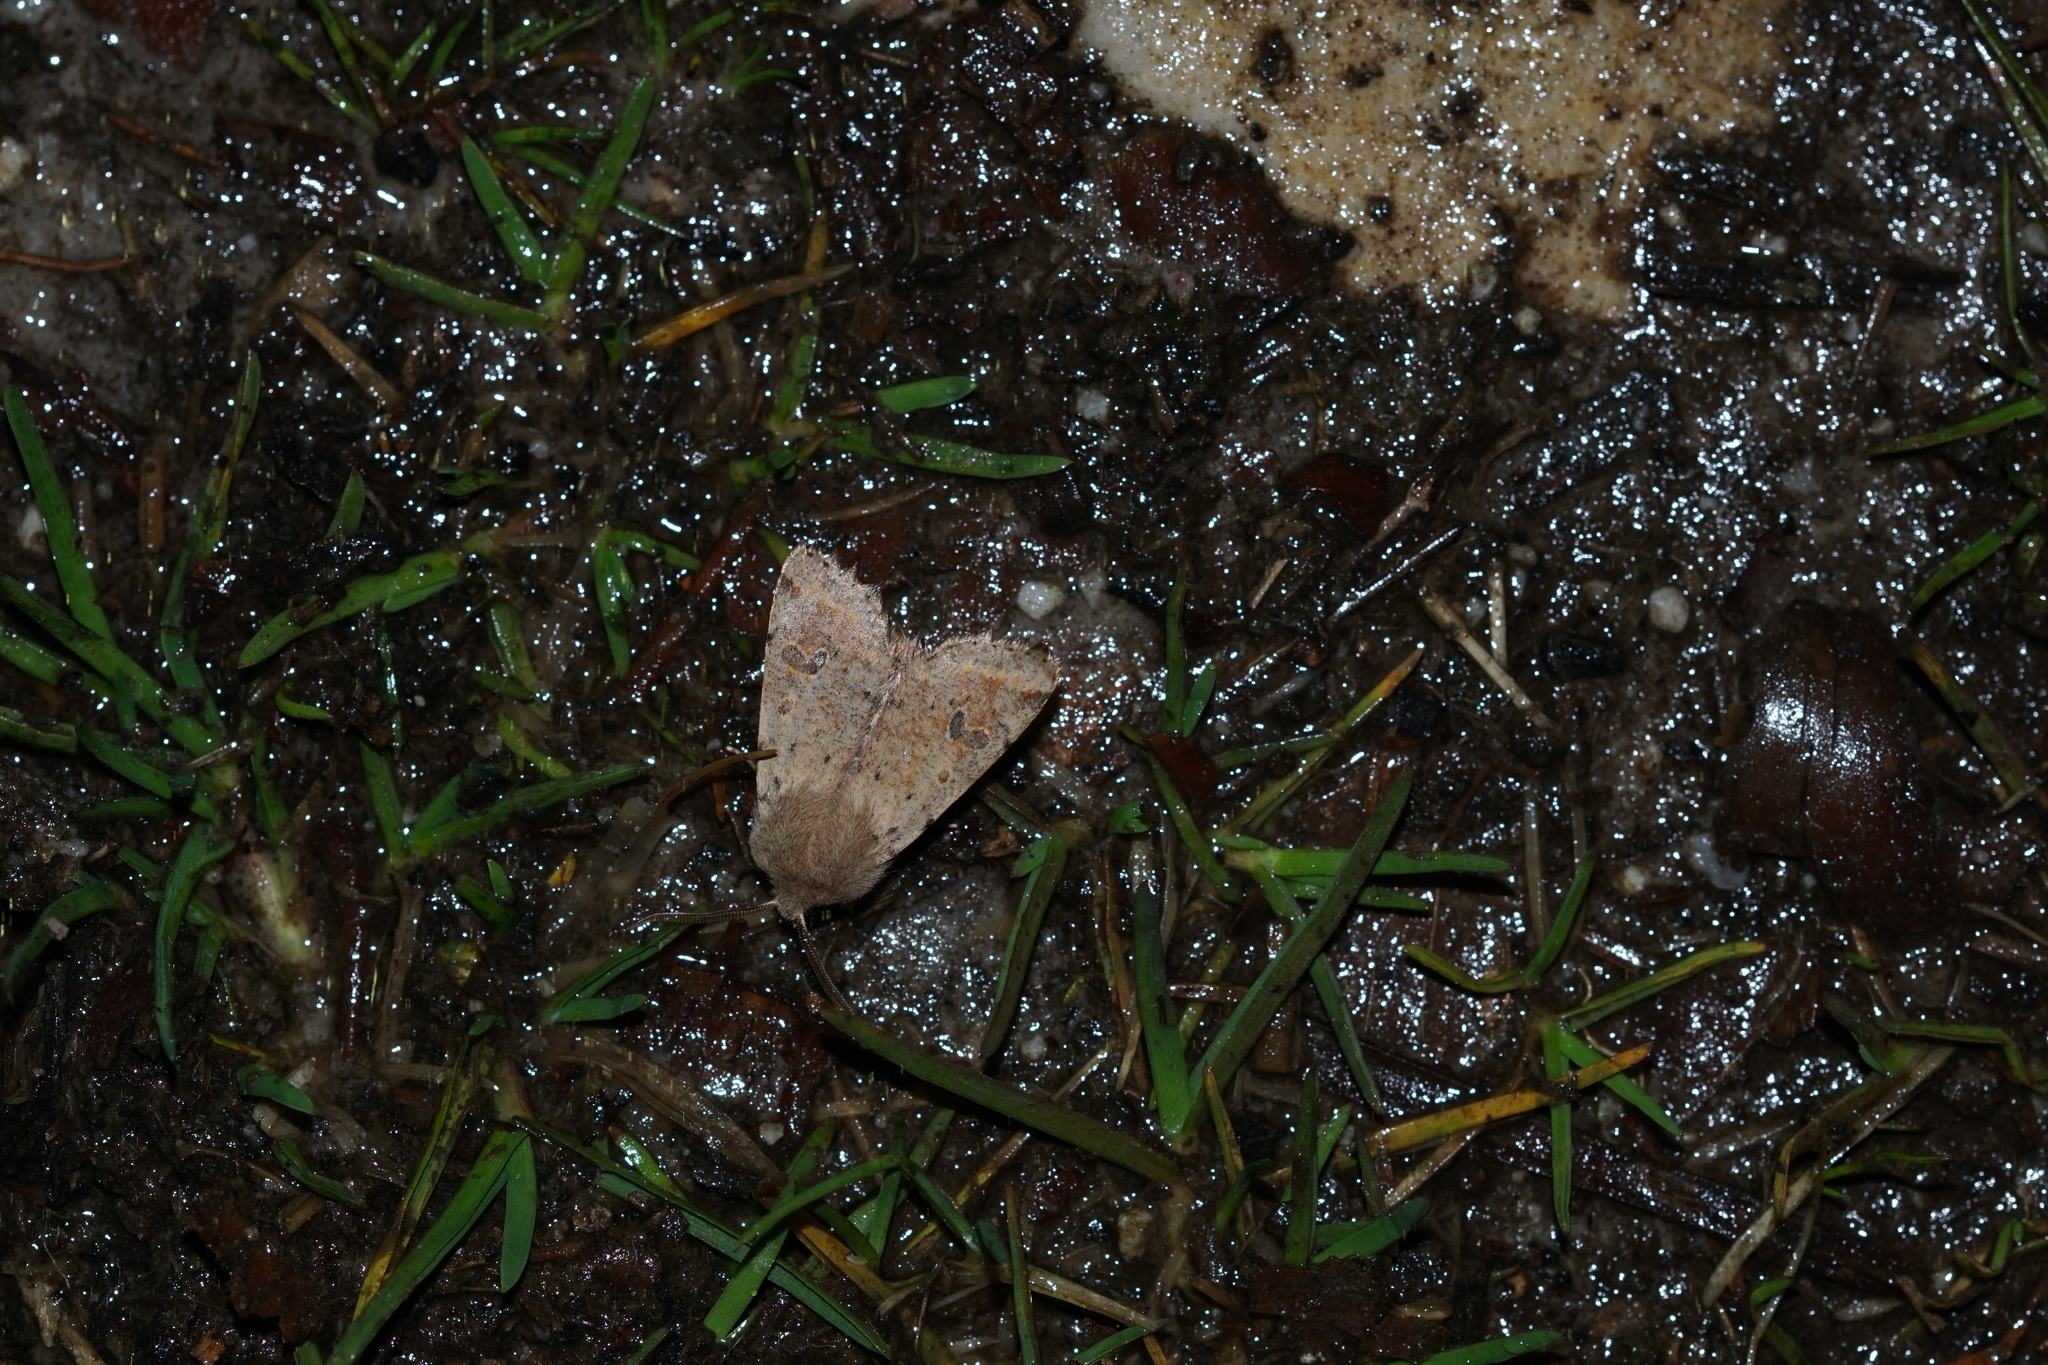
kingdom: Animalia
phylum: Arthropoda
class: Insecta
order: Lepidoptera
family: Noctuidae
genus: Orthosia
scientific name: Orthosia cruda
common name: Small quaker
